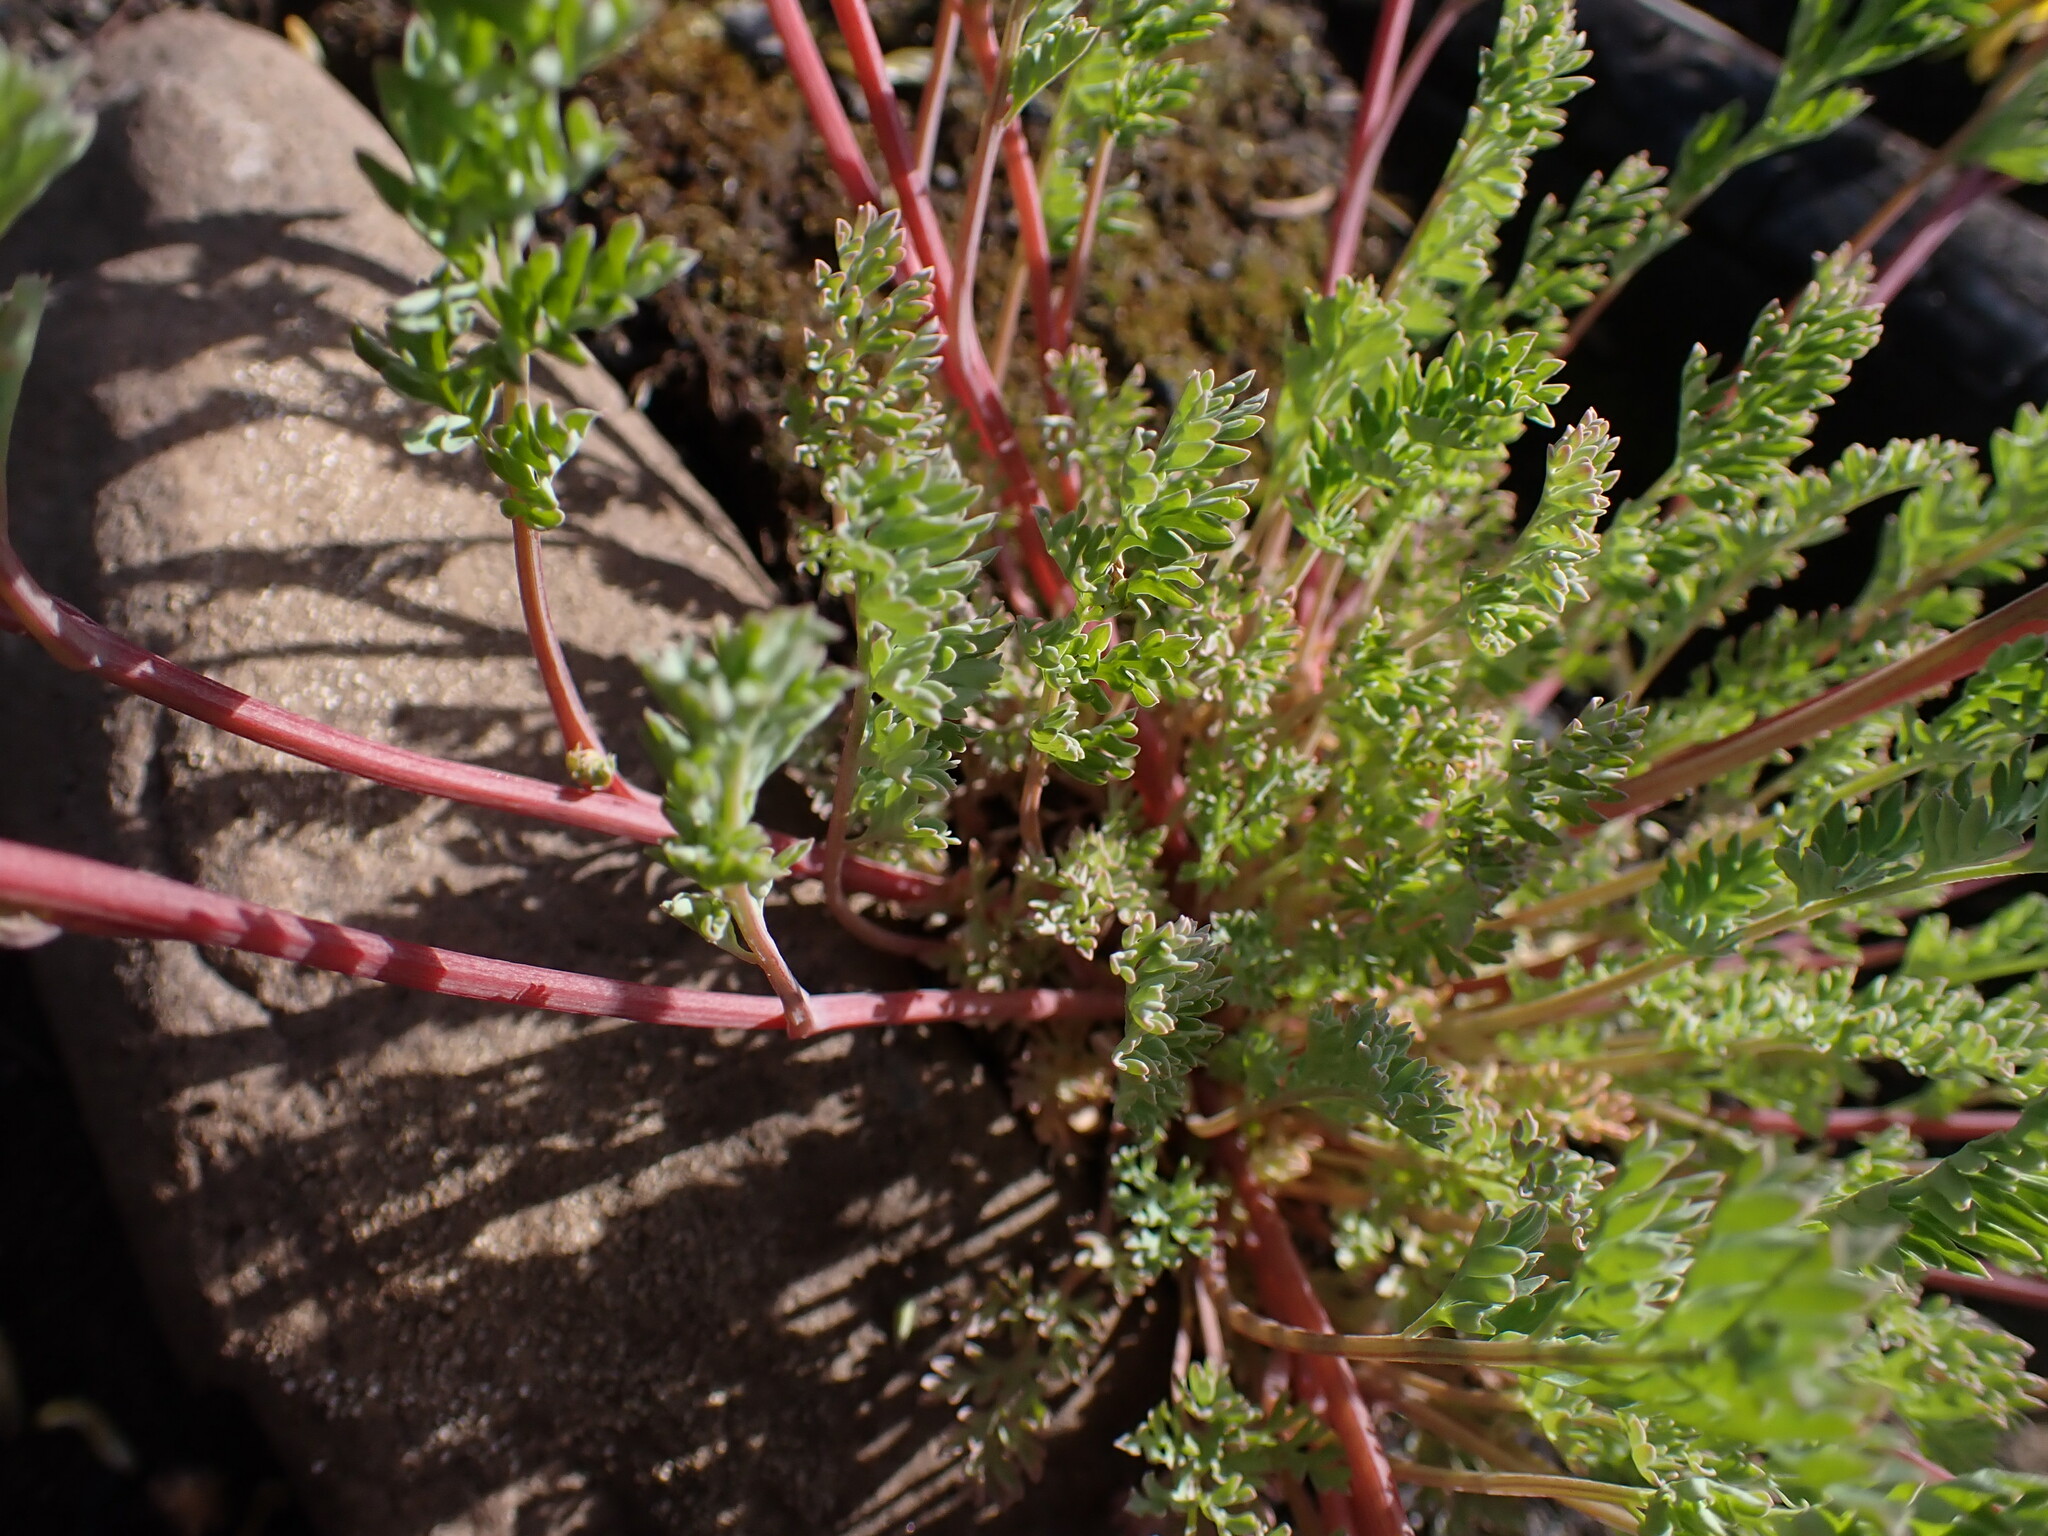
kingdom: Plantae
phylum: Tracheophyta
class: Magnoliopsida
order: Ranunculales
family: Papaveraceae
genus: Corydalis
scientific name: Corydalis aurea
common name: Golden corydalis
